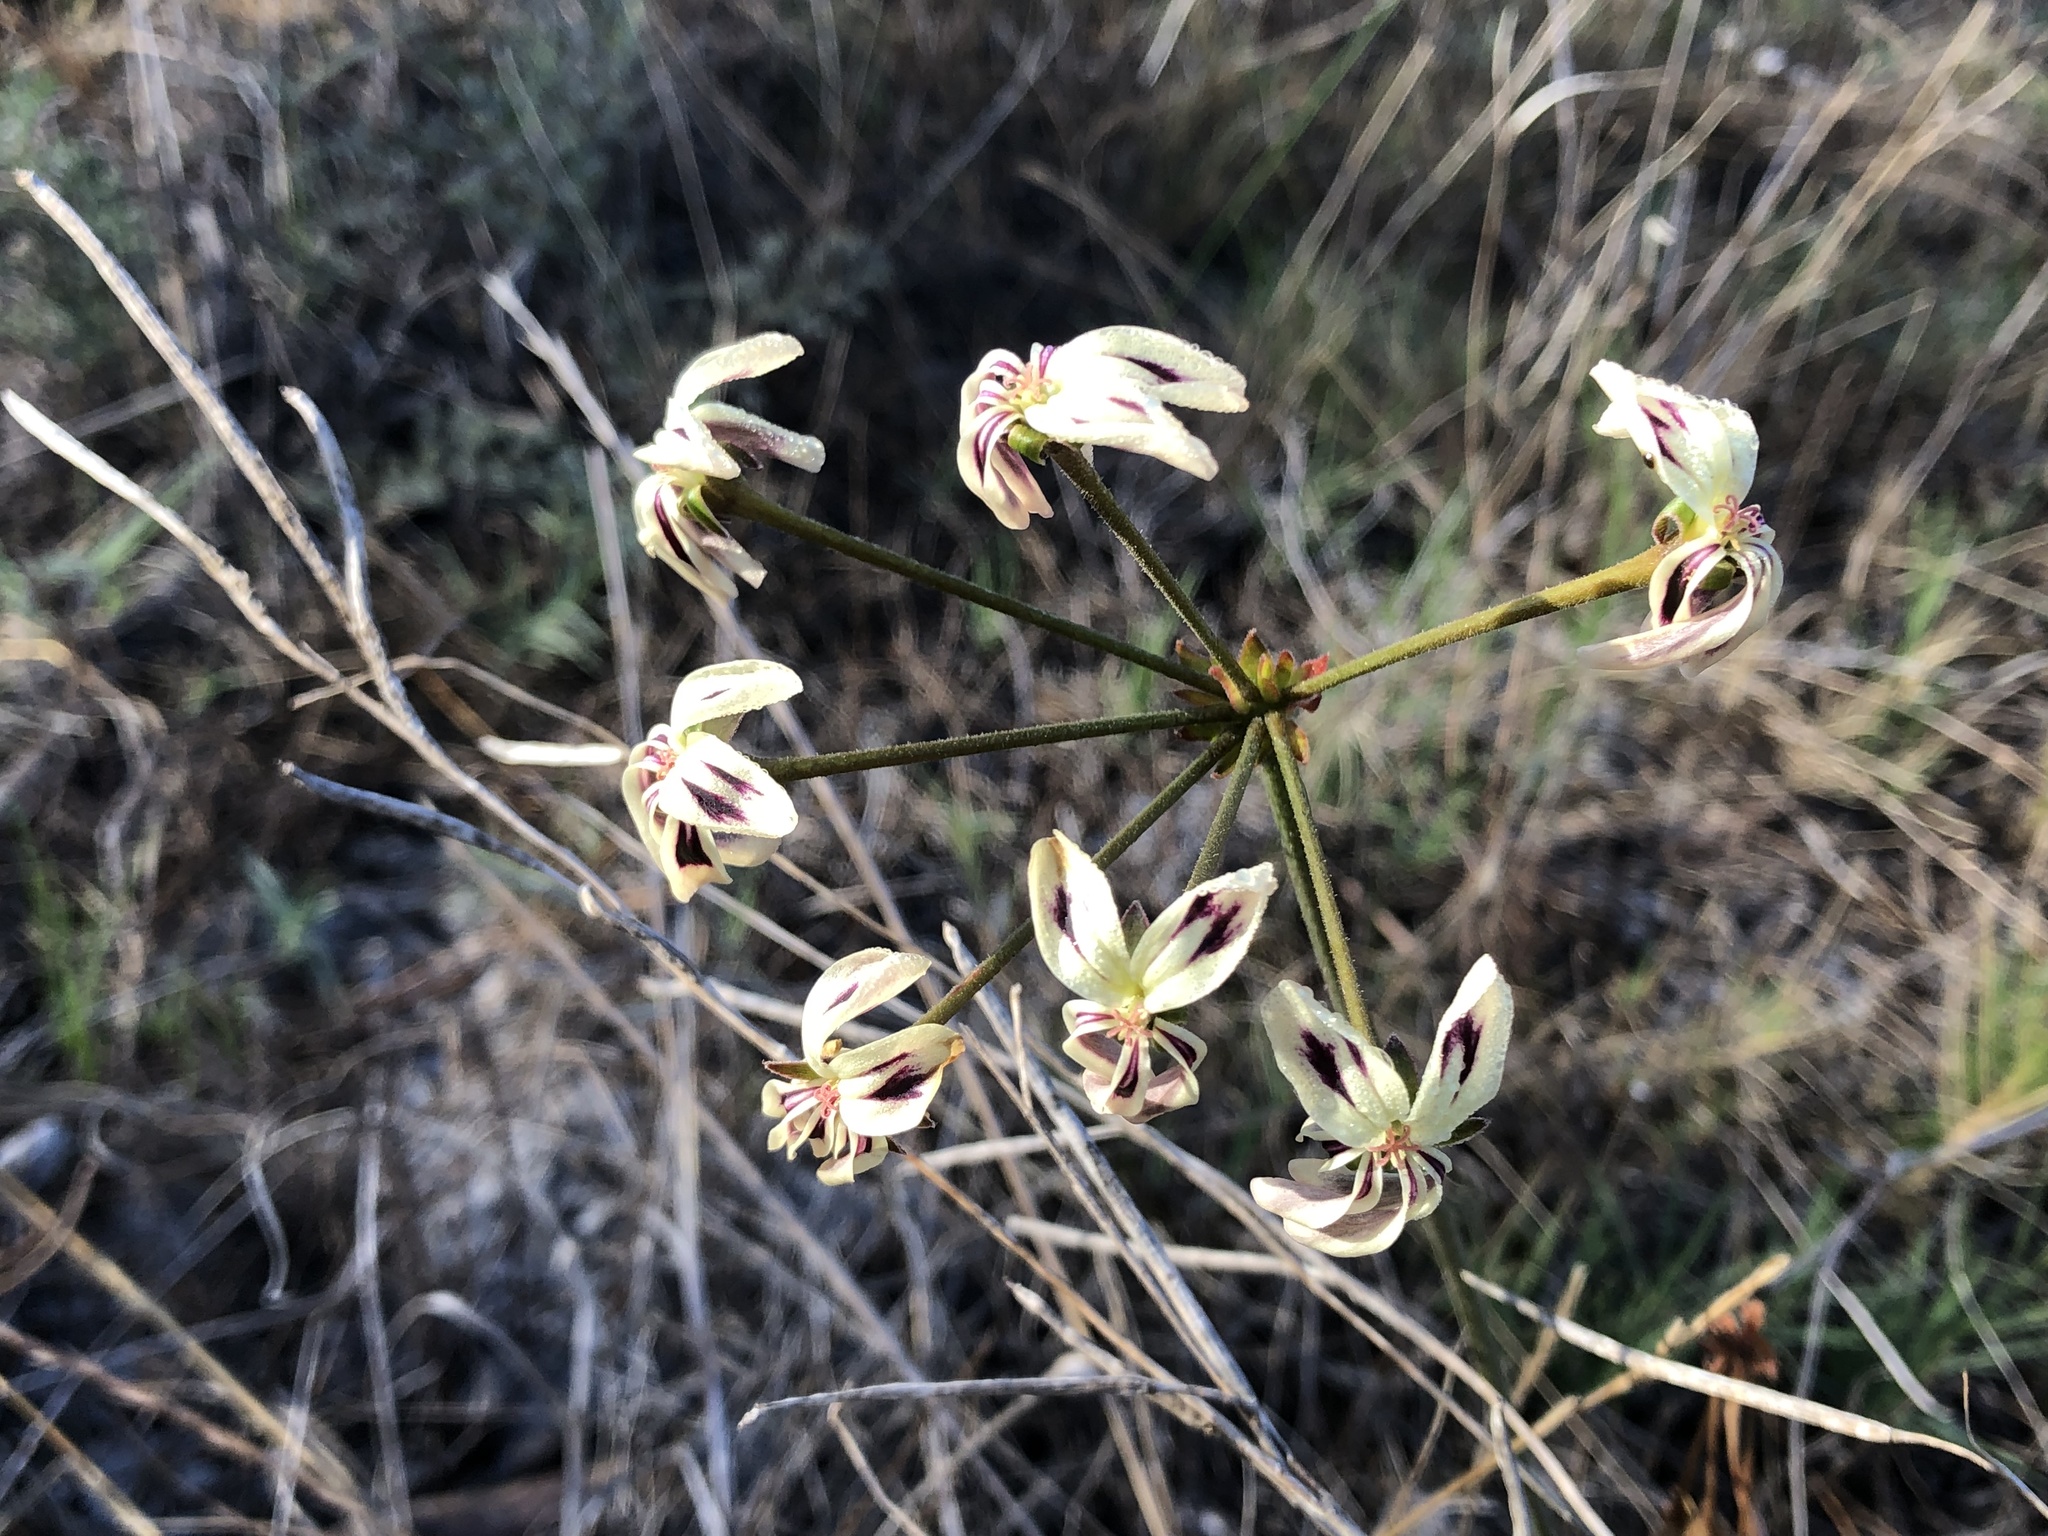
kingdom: Plantae
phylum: Tracheophyta
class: Magnoliopsida
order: Geraniales
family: Geraniaceae
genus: Pelargonium
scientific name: Pelargonium triste
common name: Night-scent pelargonium
